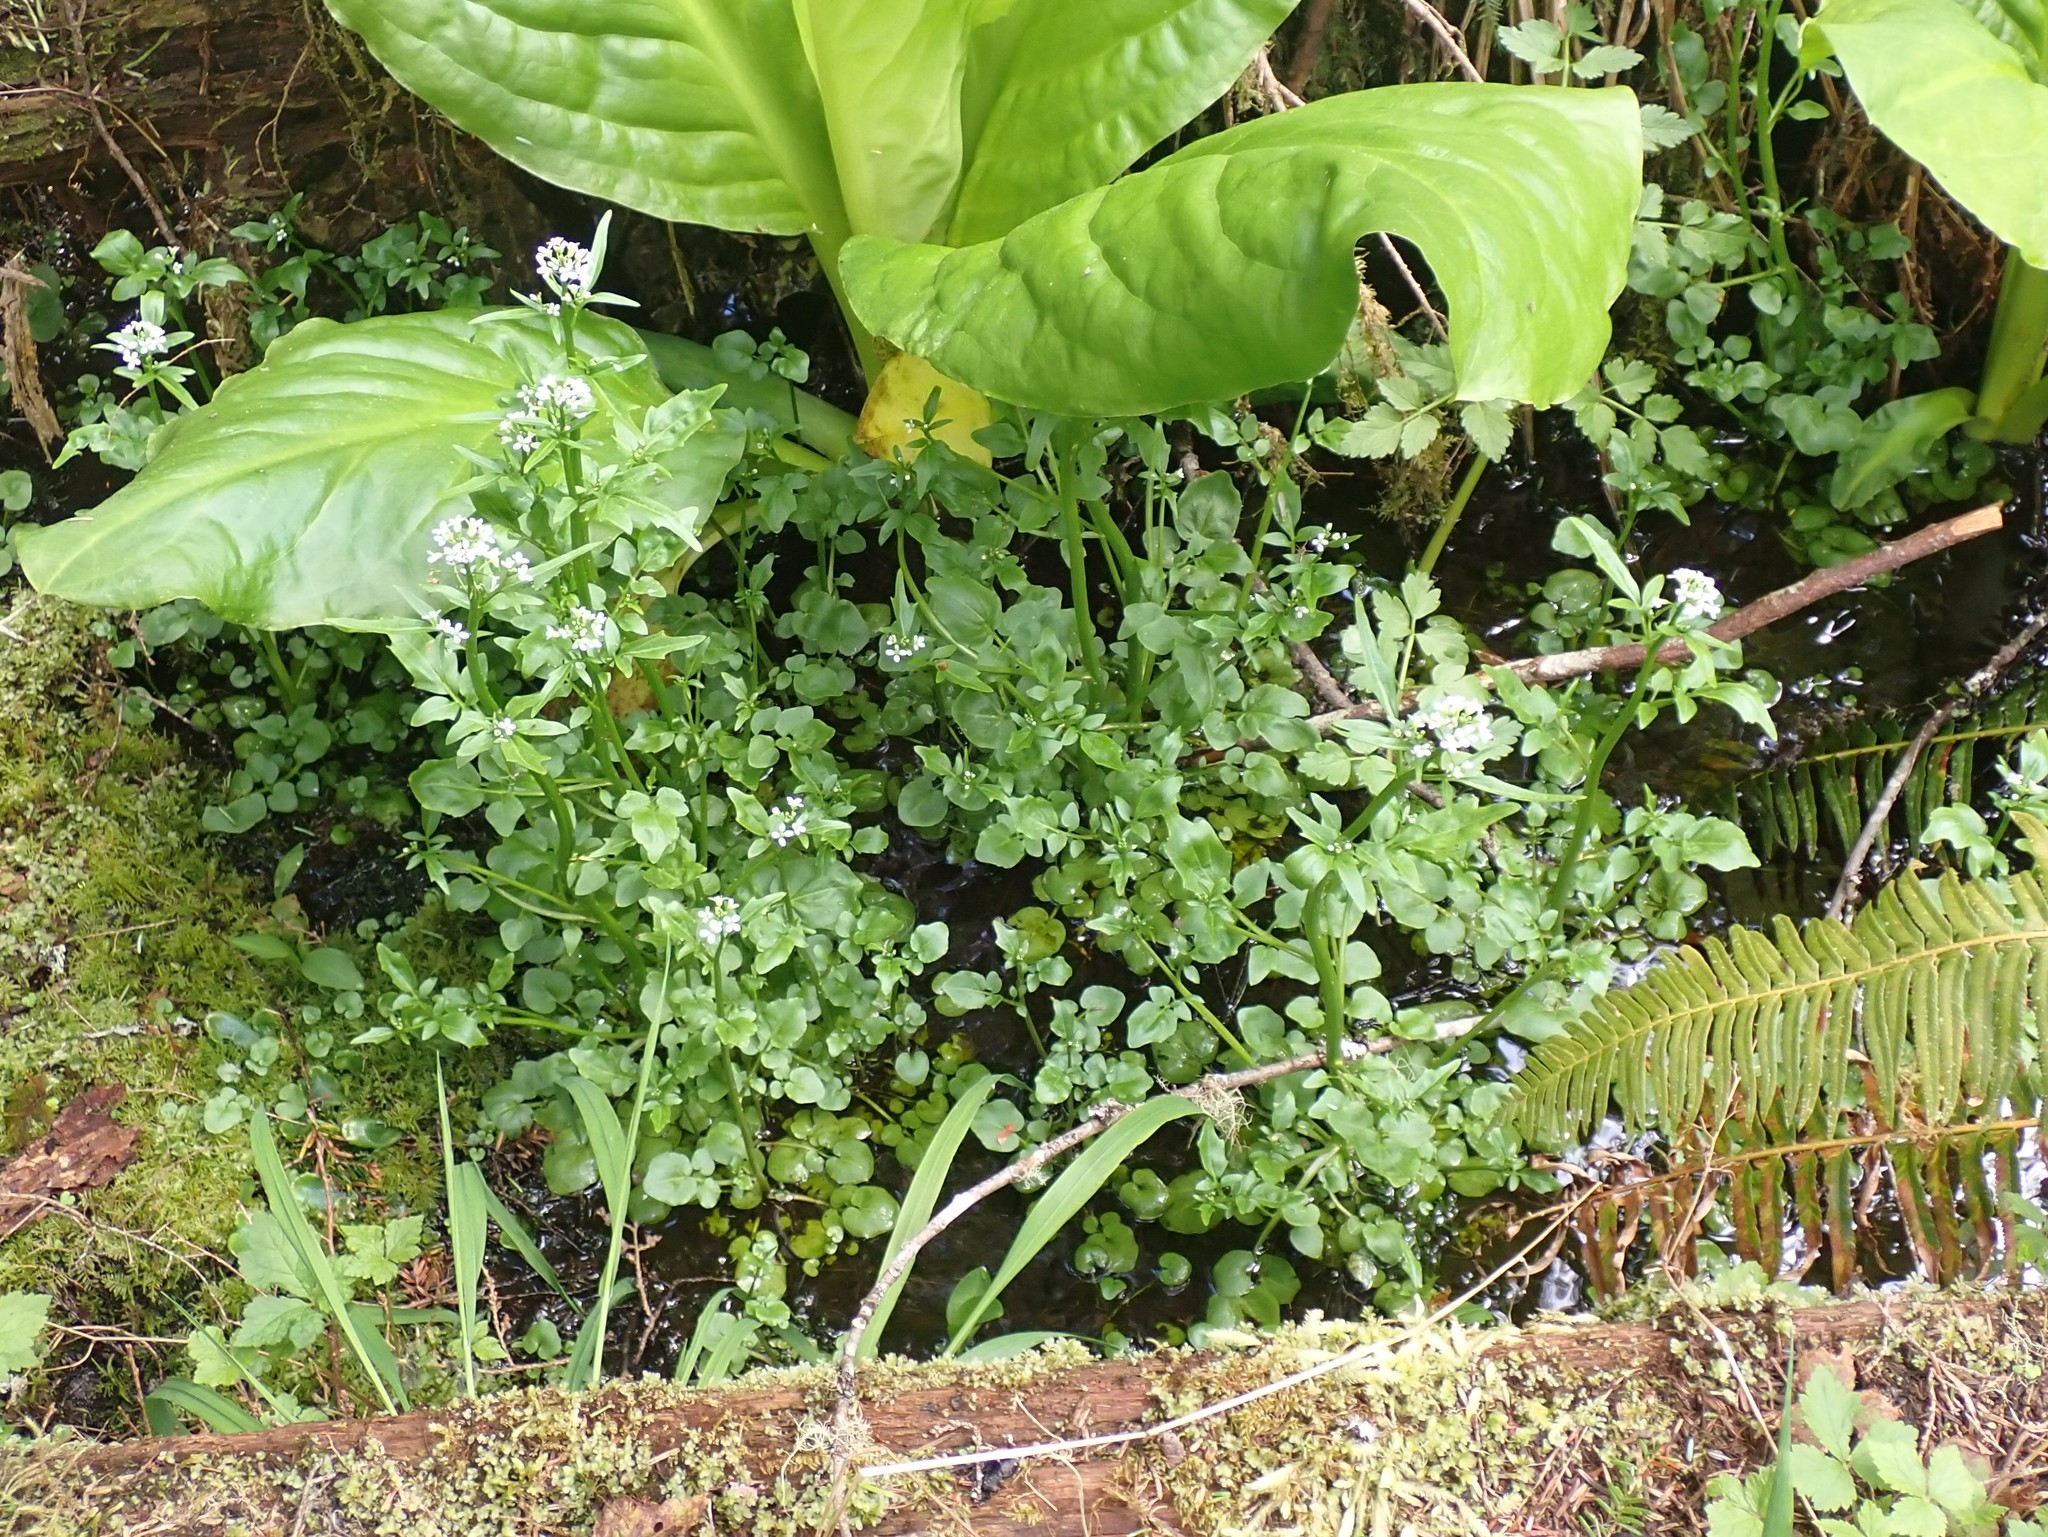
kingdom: Plantae
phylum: Tracheophyta
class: Magnoliopsida
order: Brassicales
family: Brassicaceae
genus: Cardamine
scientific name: Cardamine breweri
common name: Brewer's bittercress
